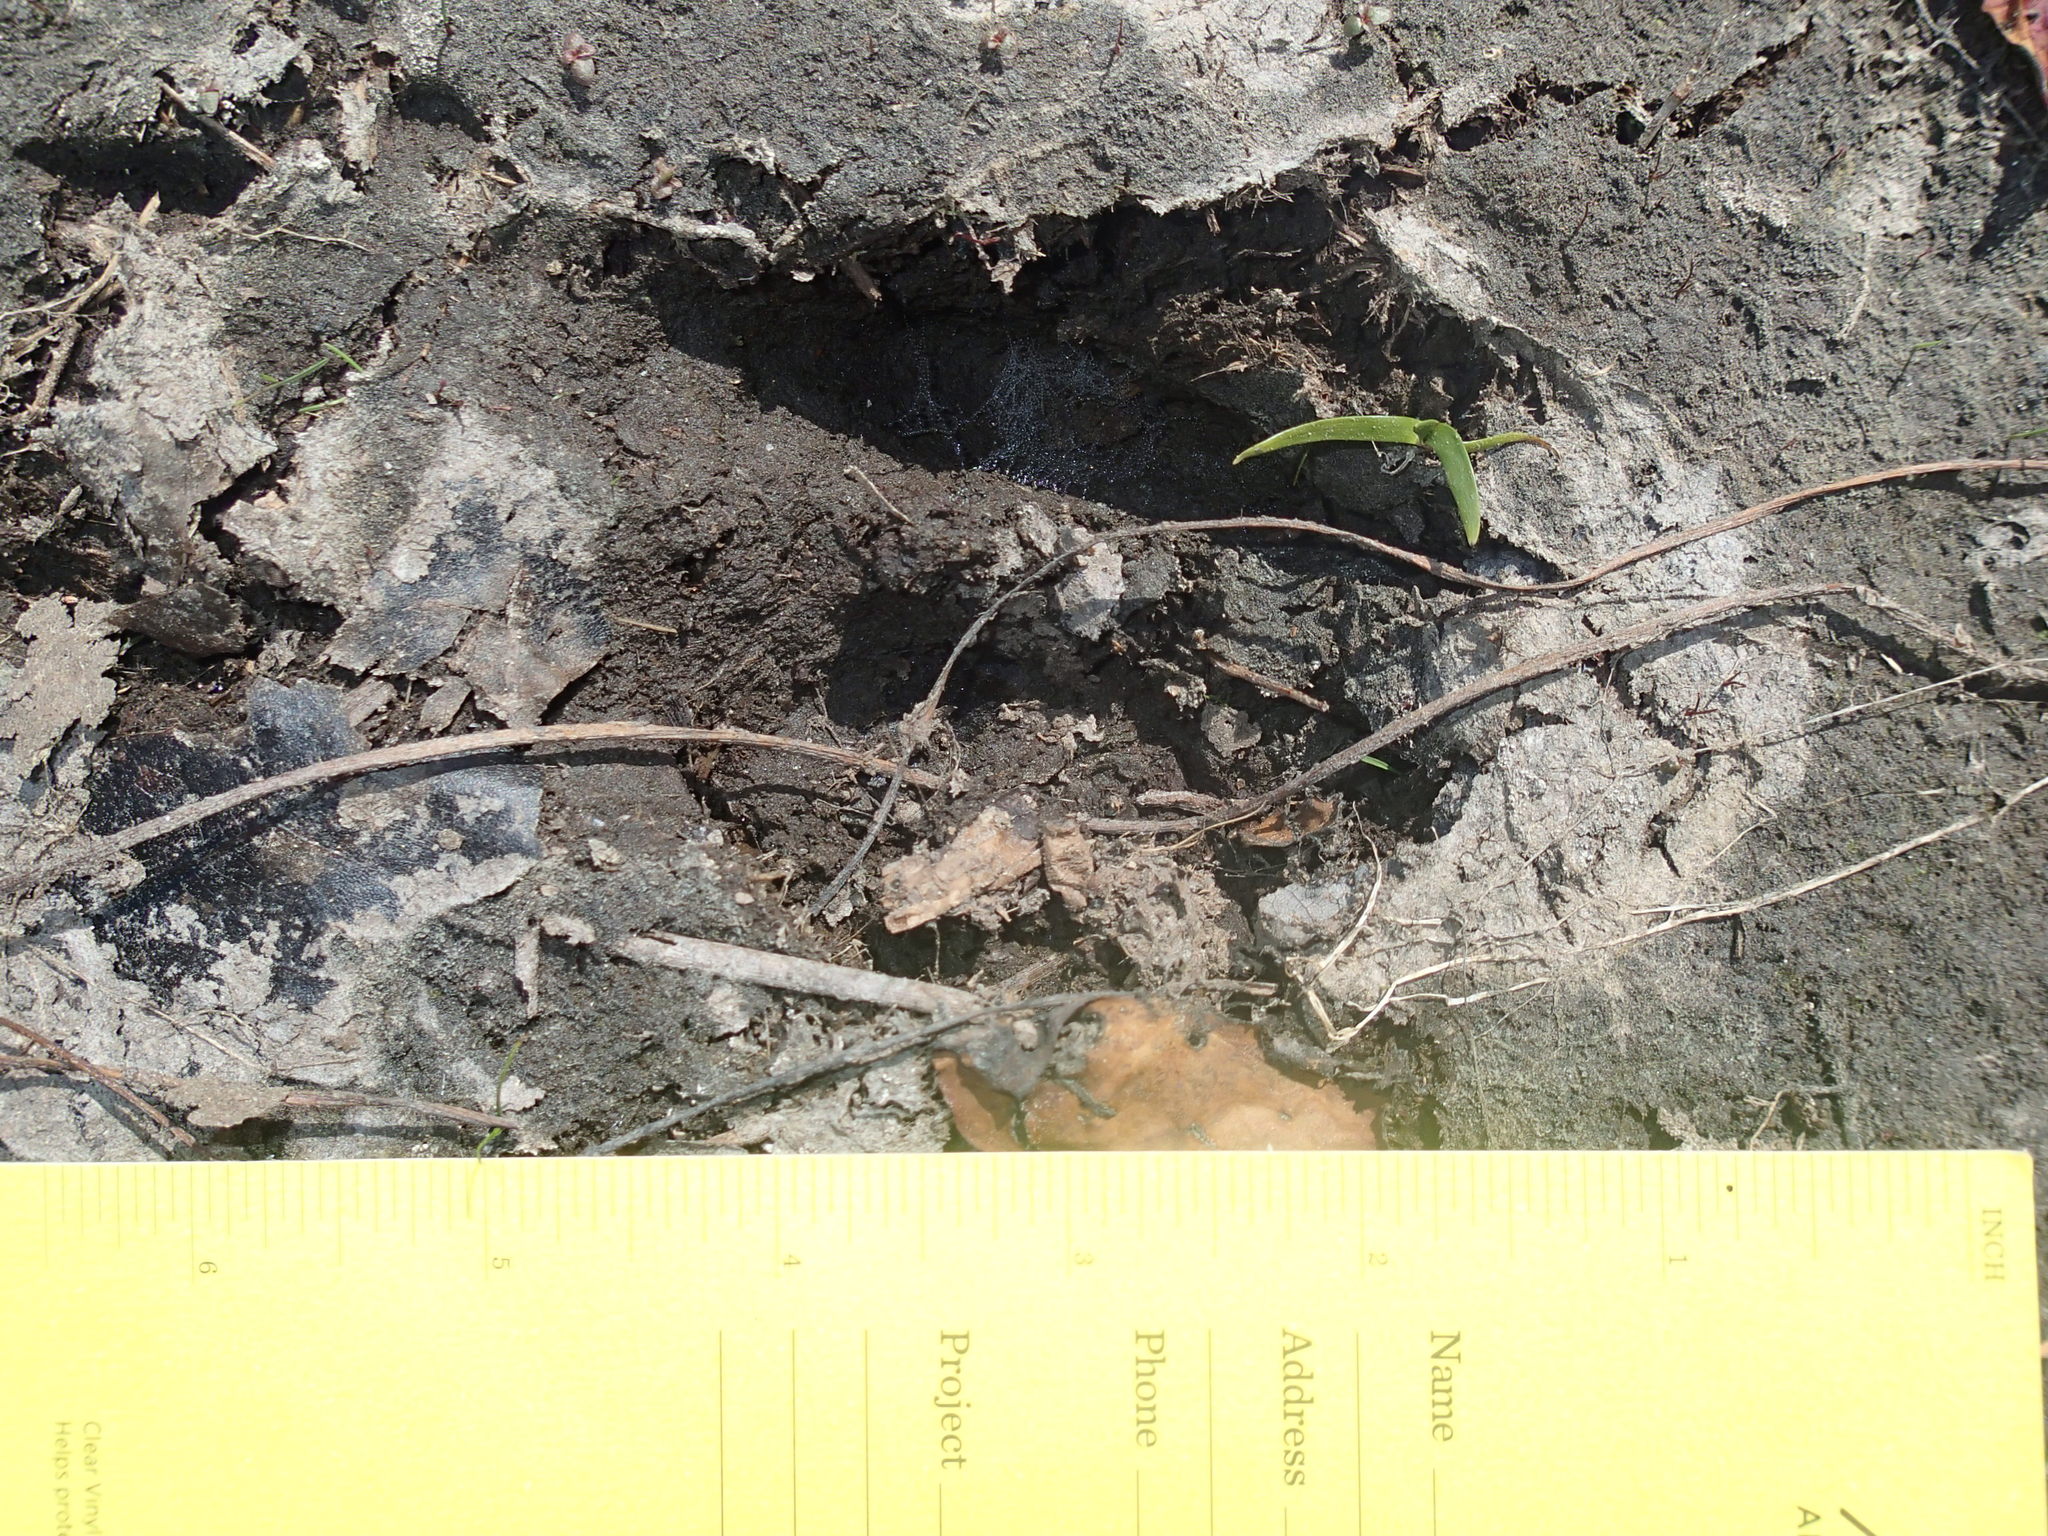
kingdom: Animalia
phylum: Chordata
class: Mammalia
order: Artiodactyla
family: Cervidae
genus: Odocoileus
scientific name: Odocoileus virginianus
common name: White-tailed deer
